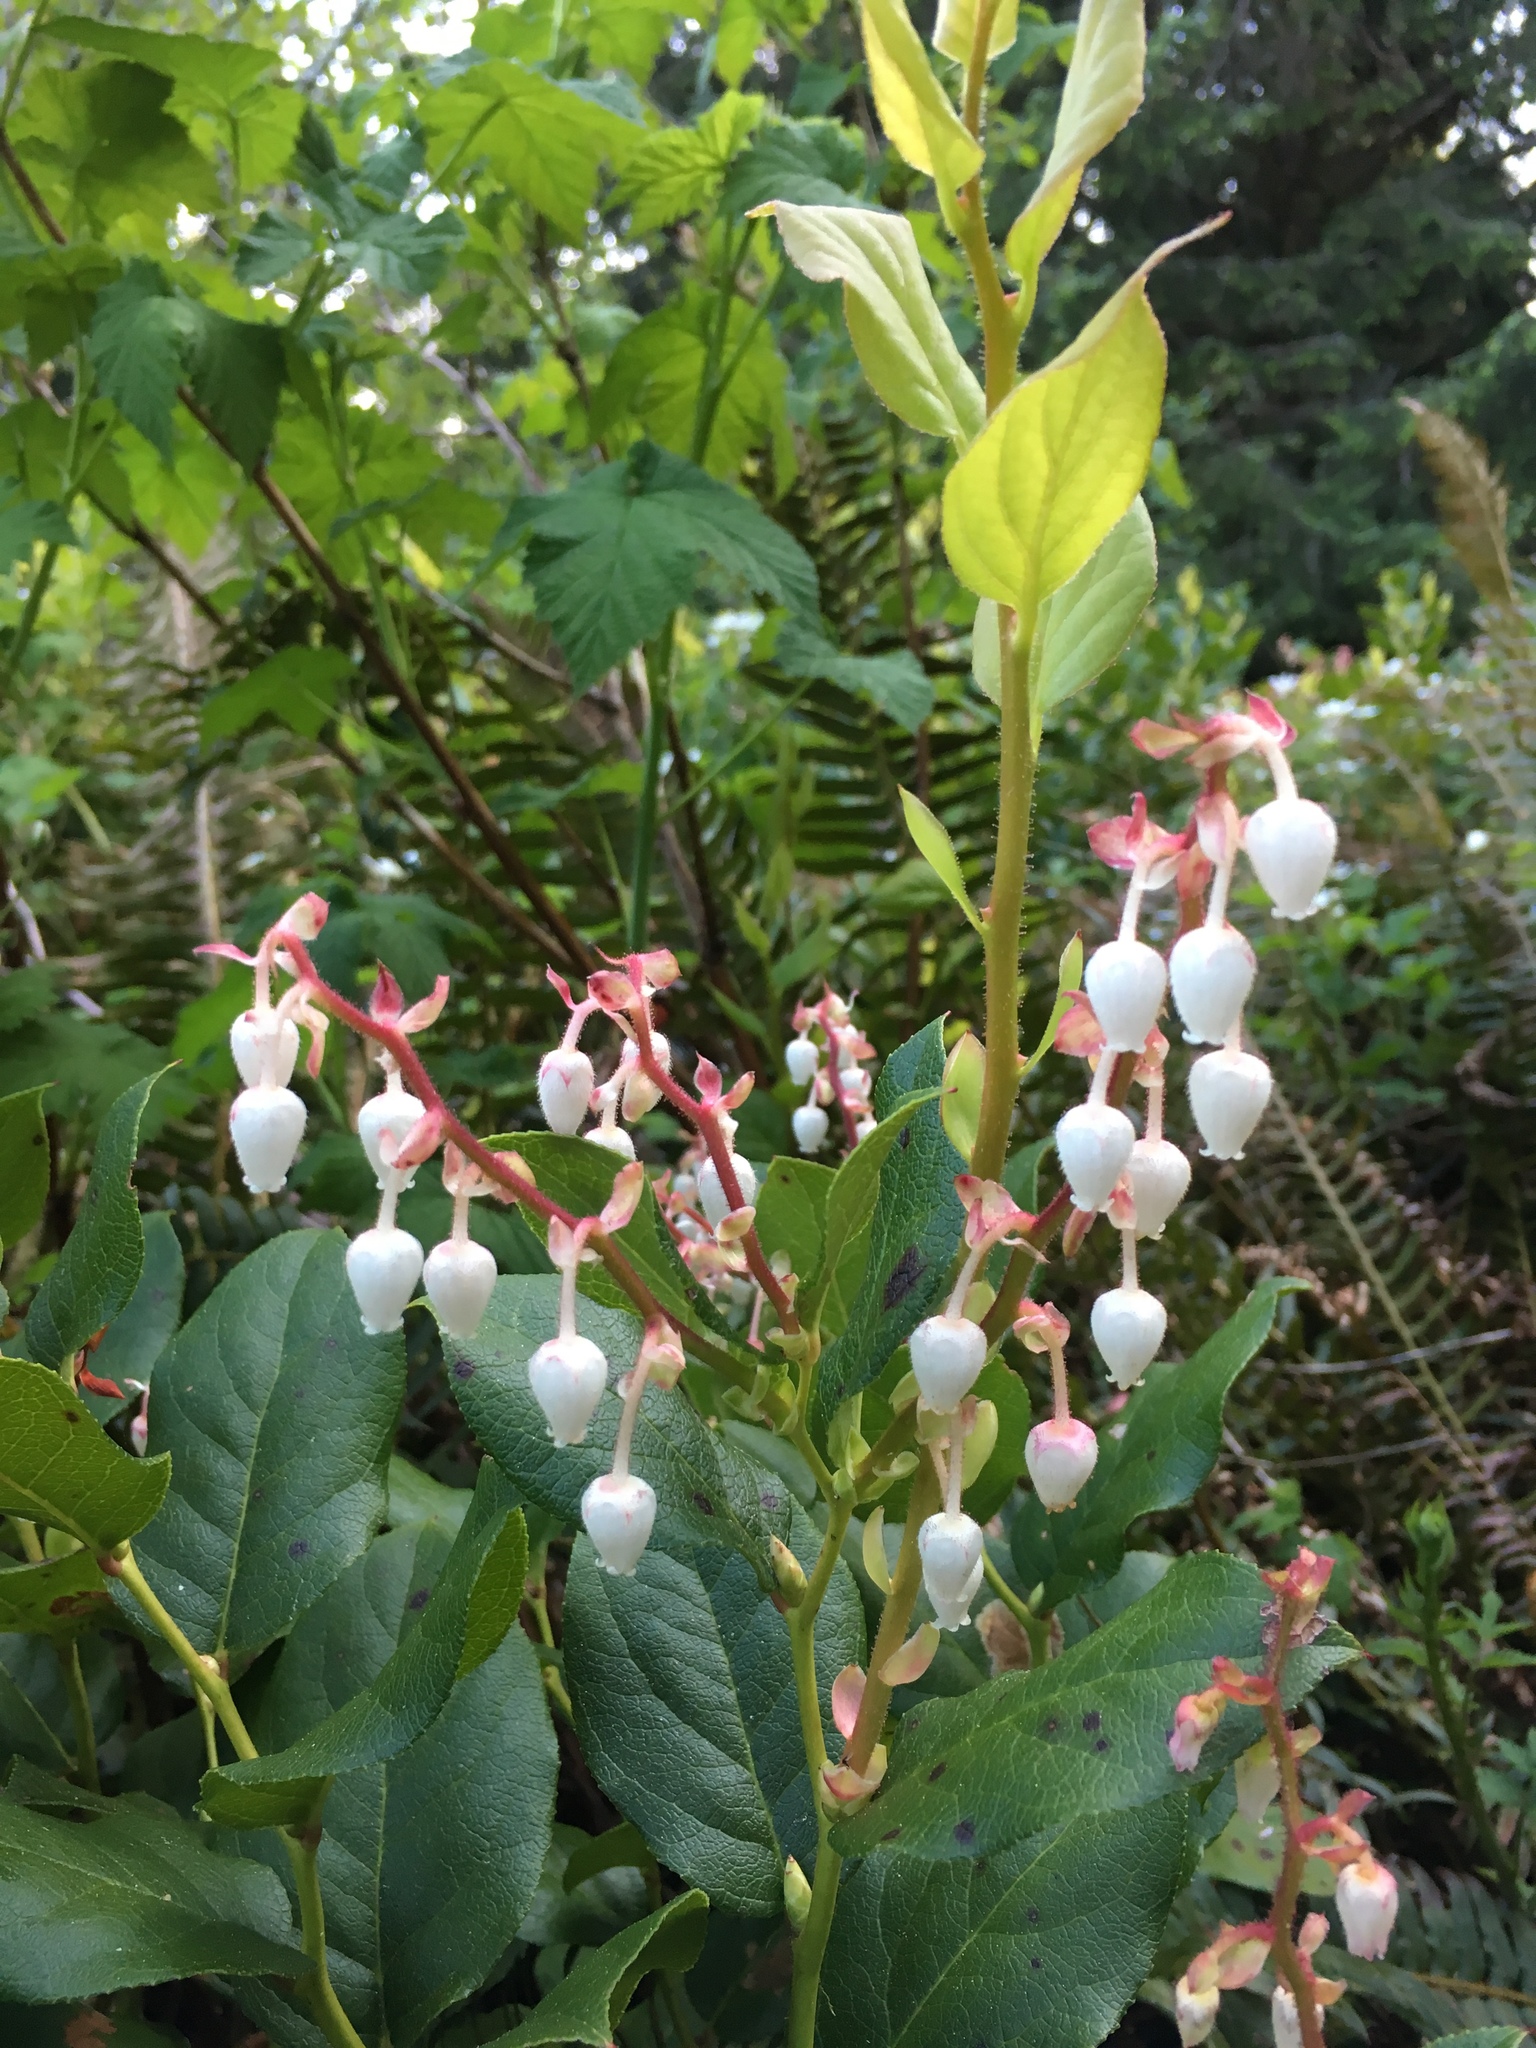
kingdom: Plantae
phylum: Tracheophyta
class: Magnoliopsida
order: Ericales
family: Ericaceae
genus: Gaultheria
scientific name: Gaultheria shallon
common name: Shallon
